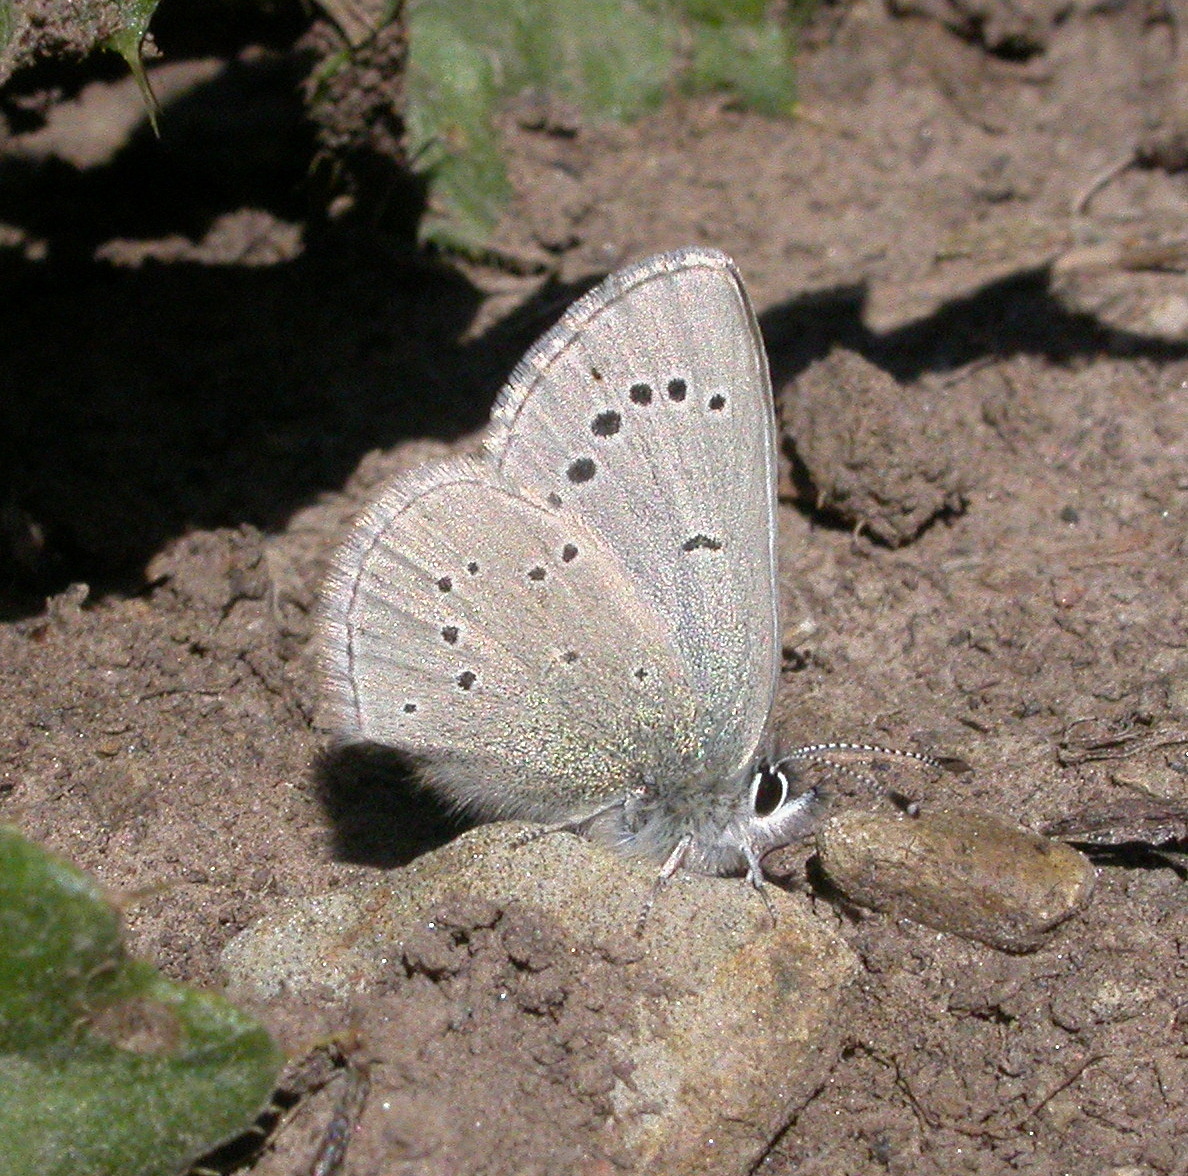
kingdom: Animalia
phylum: Arthropoda
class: Insecta
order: Lepidoptera
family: Lycaenidae
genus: Glaucopsyche
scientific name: Glaucopsyche lygdamus
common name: Silvery blue
